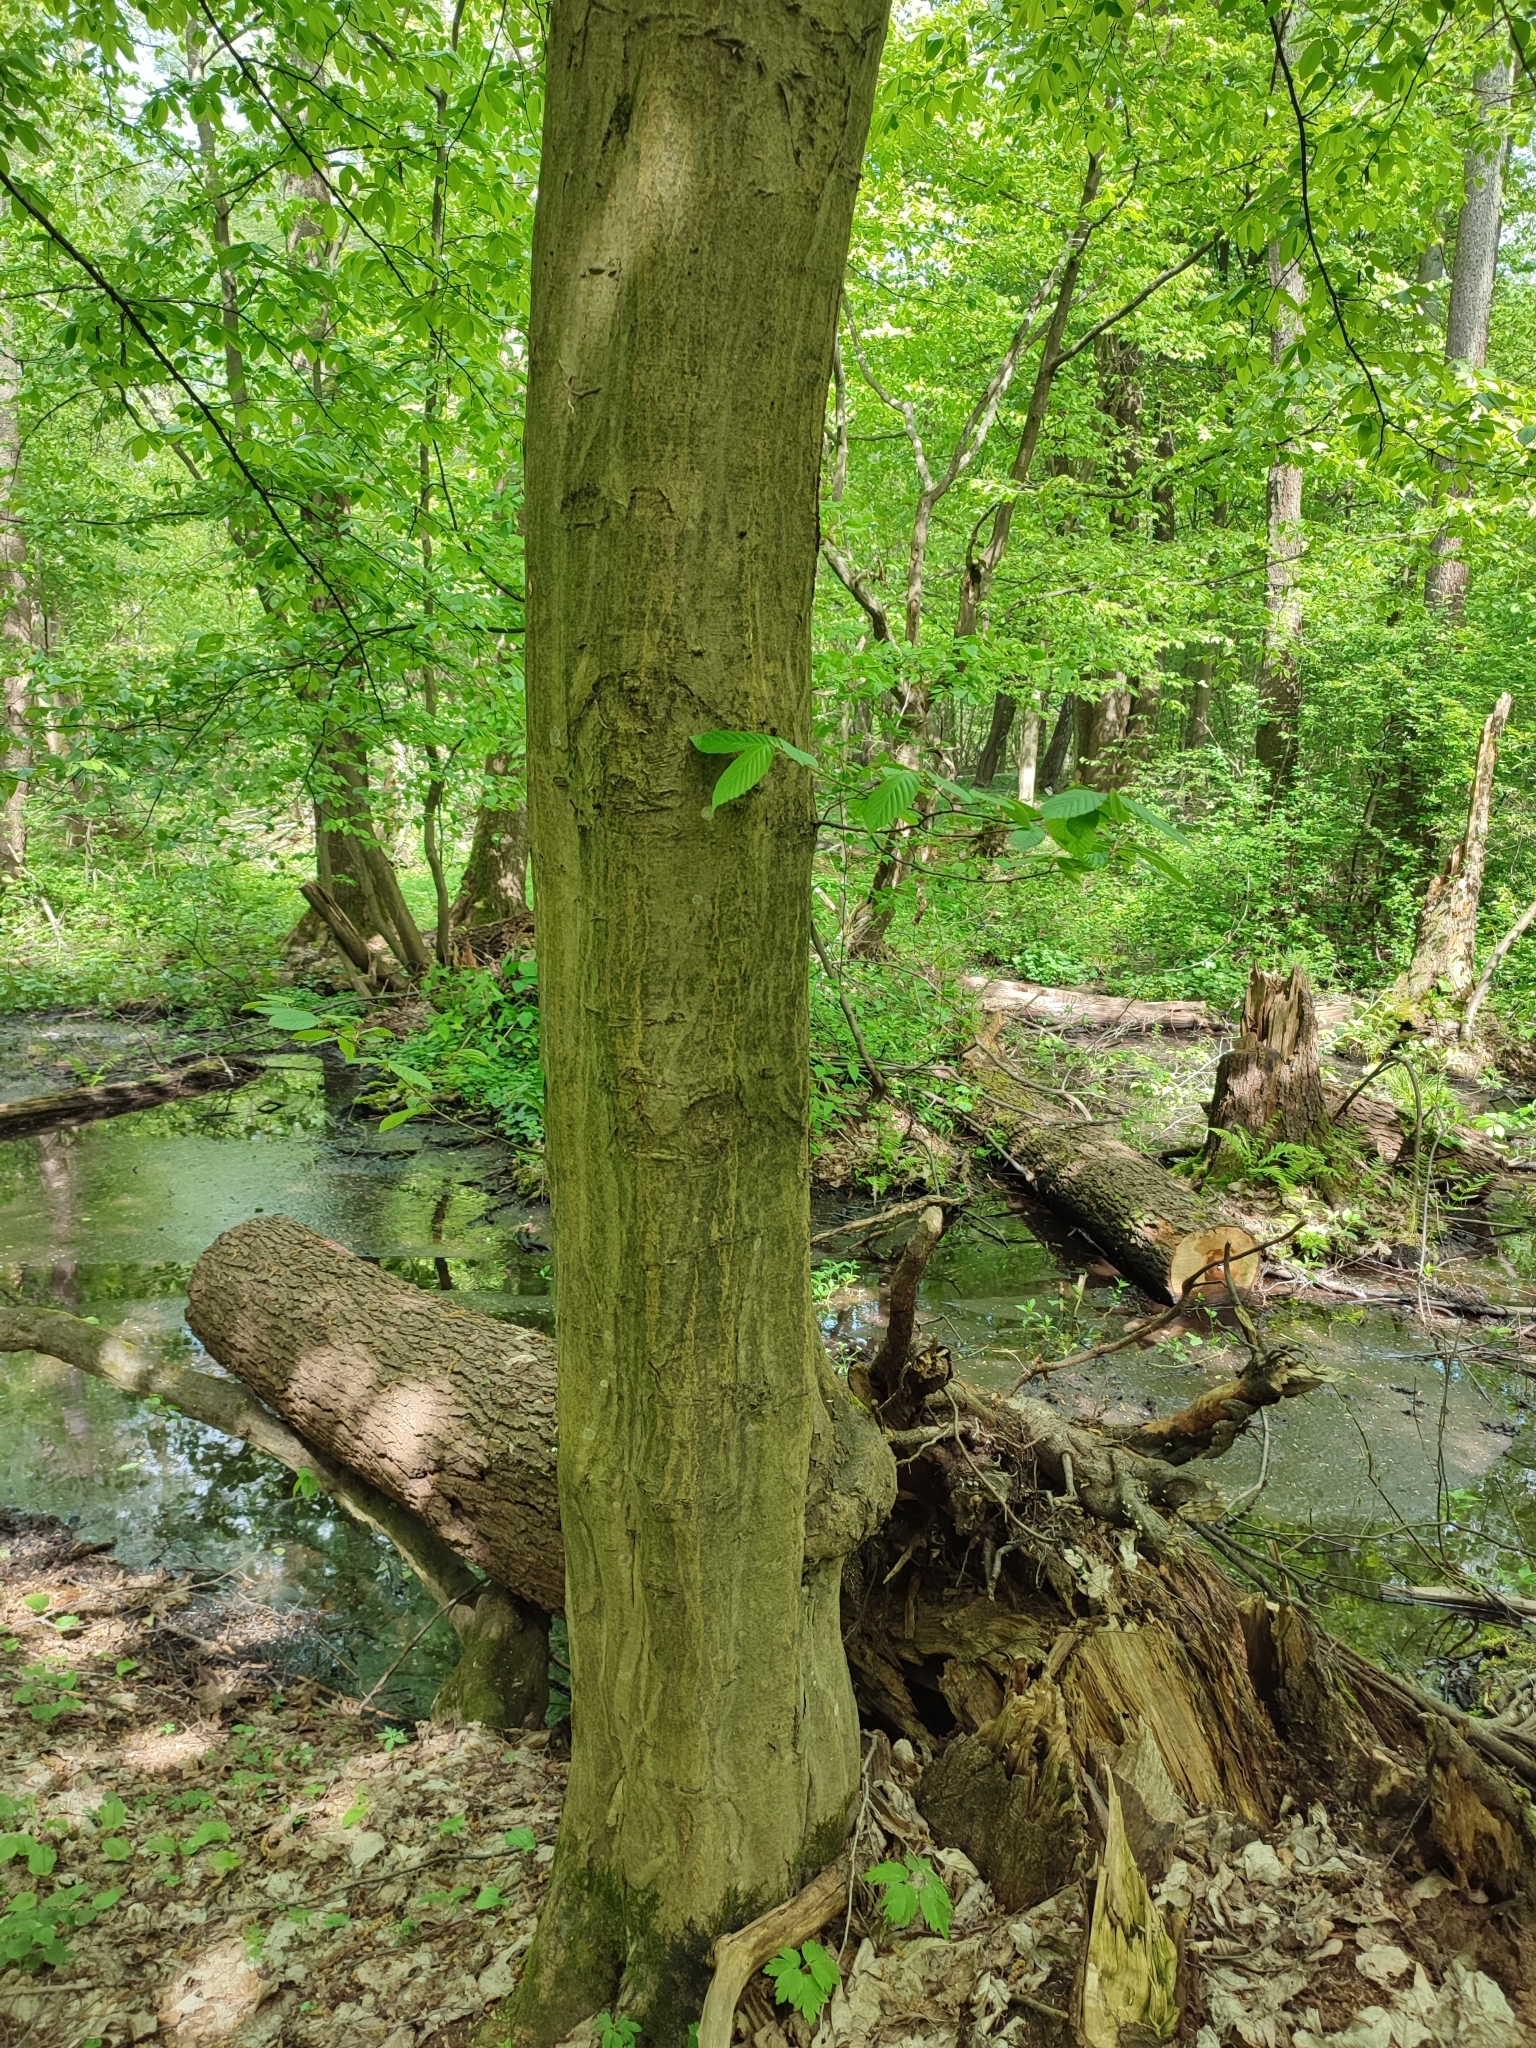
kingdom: Plantae
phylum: Tracheophyta
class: Magnoliopsida
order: Fagales
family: Betulaceae
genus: Carpinus
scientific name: Carpinus betulus
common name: Hornbeam
